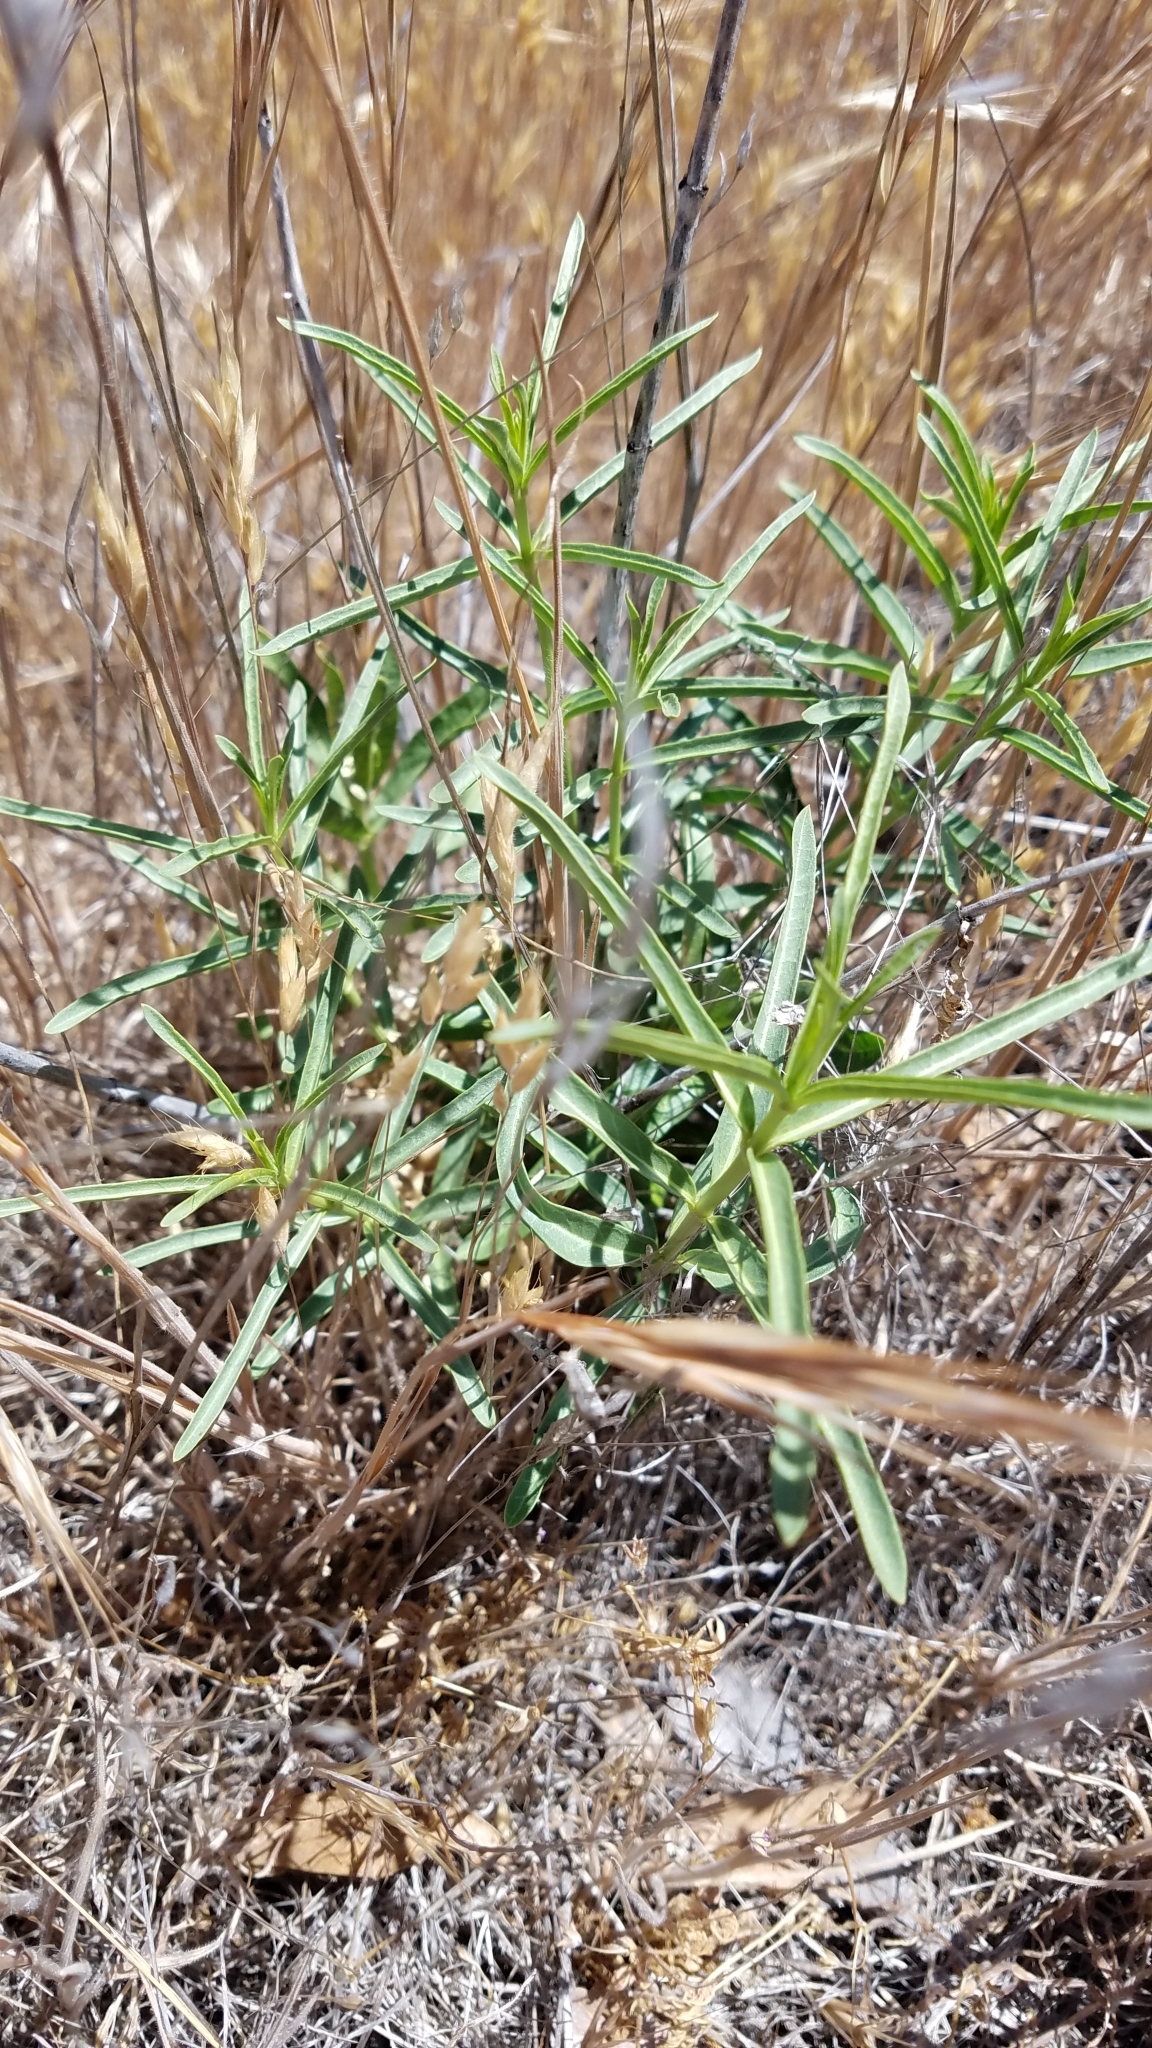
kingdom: Plantae
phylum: Tracheophyta
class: Magnoliopsida
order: Gentianales
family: Apocynaceae
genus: Asclepias
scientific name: Asclepias fascicularis
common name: Mexican milkweed
